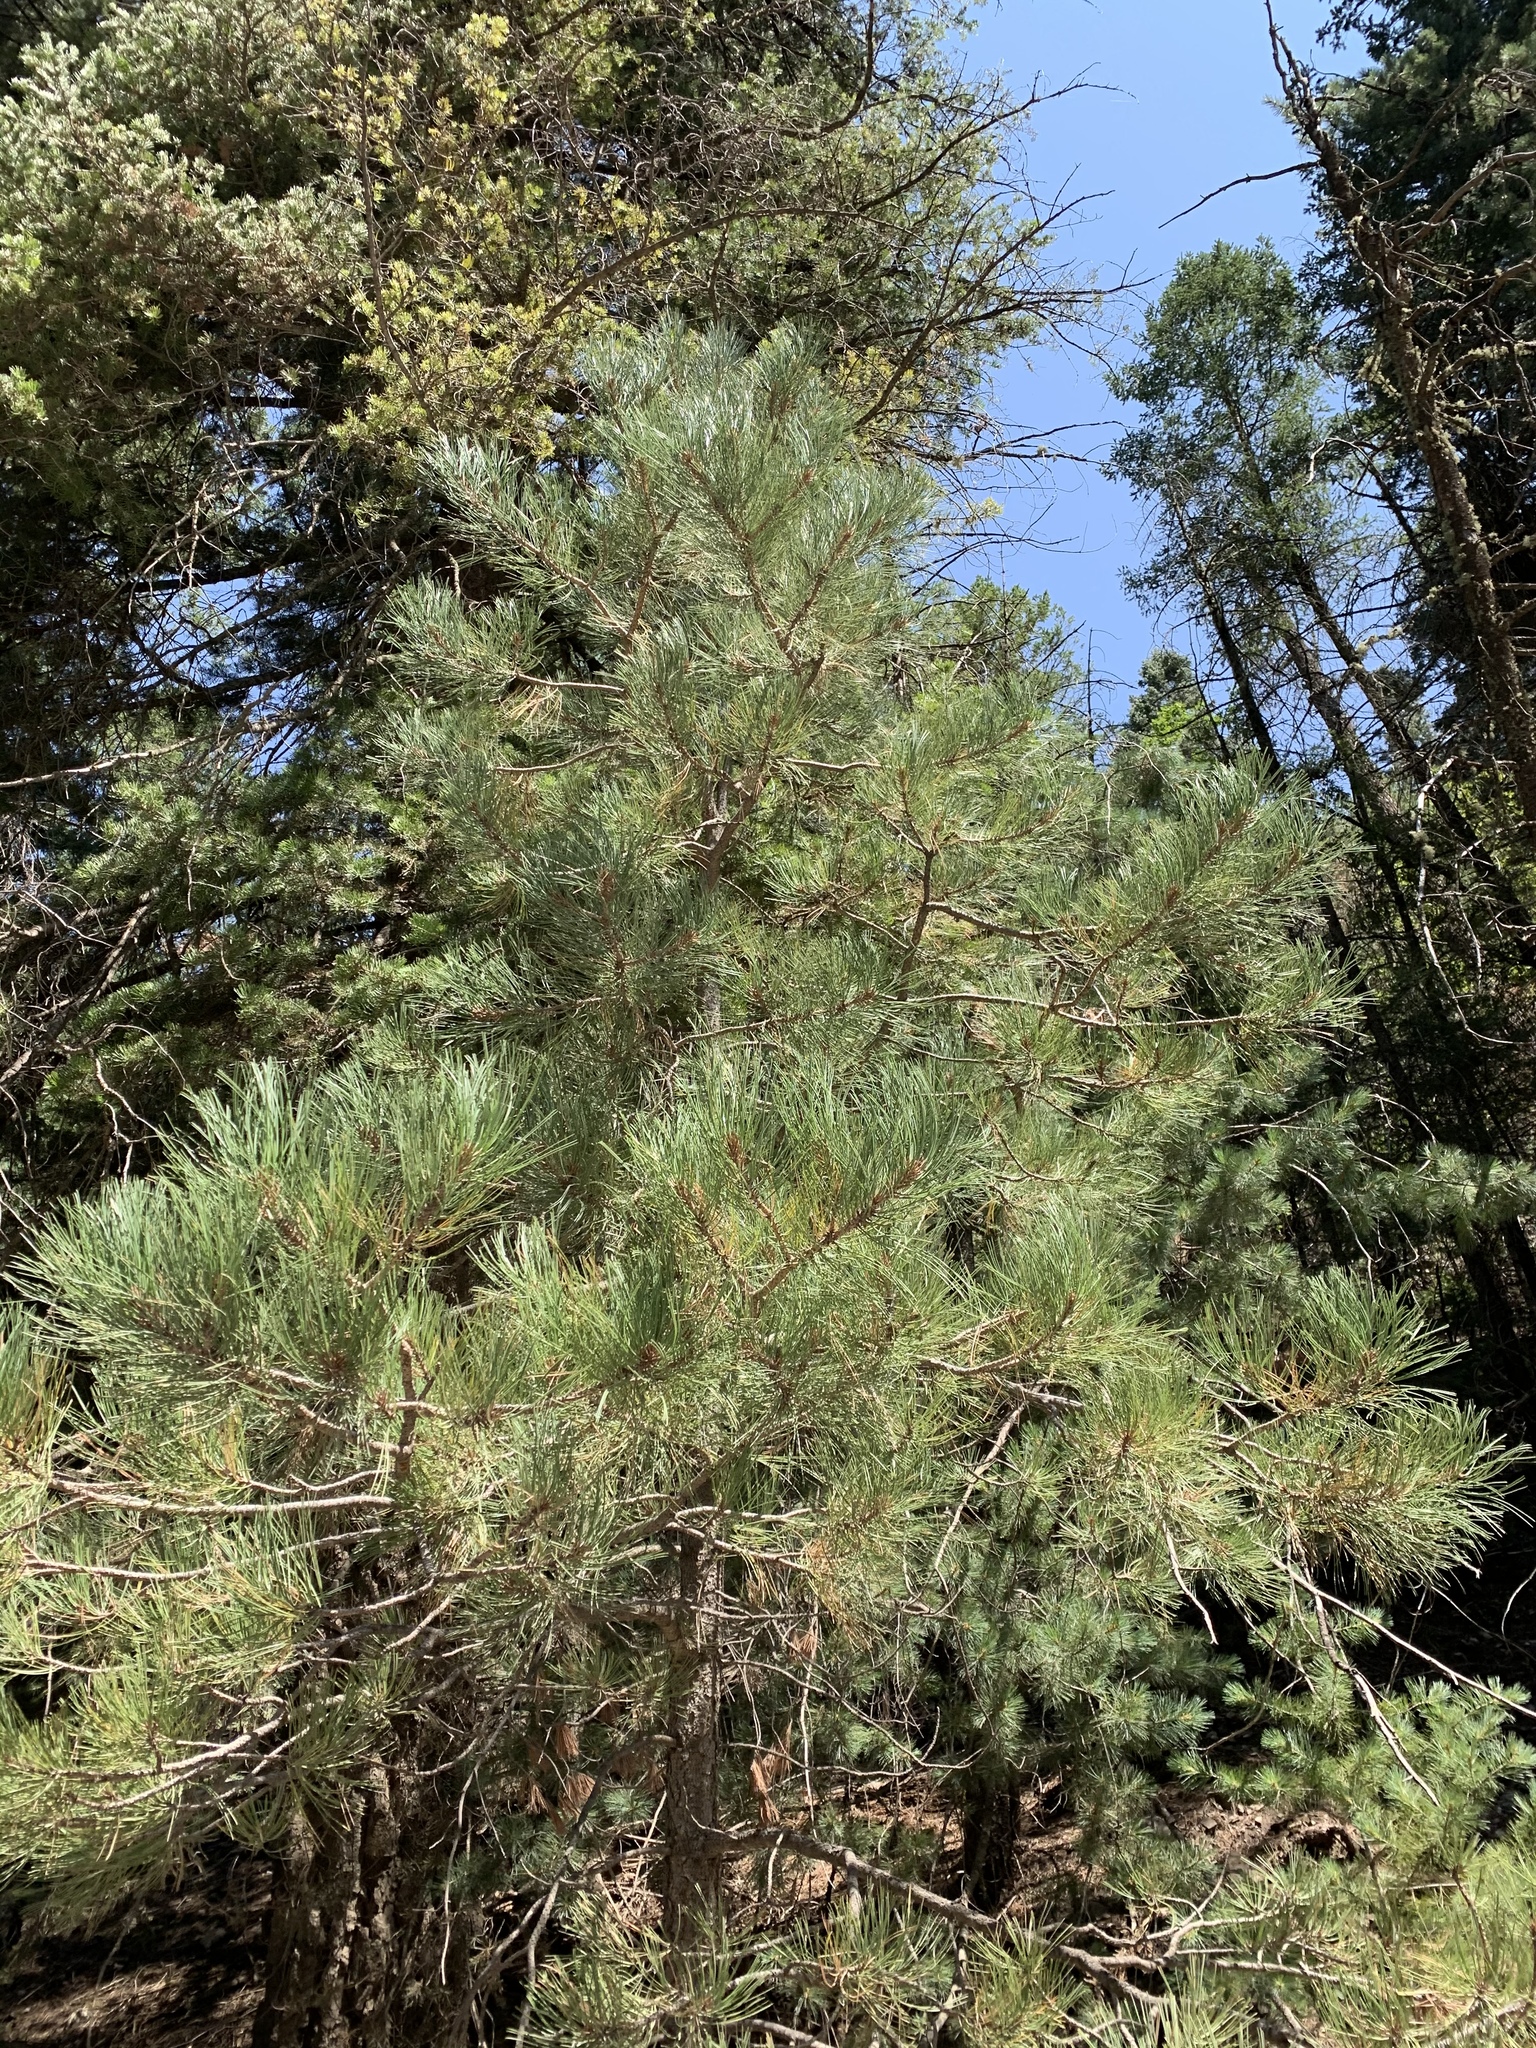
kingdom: Plantae
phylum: Tracheophyta
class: Pinopsida
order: Pinales
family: Pinaceae
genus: Pinus
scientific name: Pinus strobiformis
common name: Southwestern white pine
